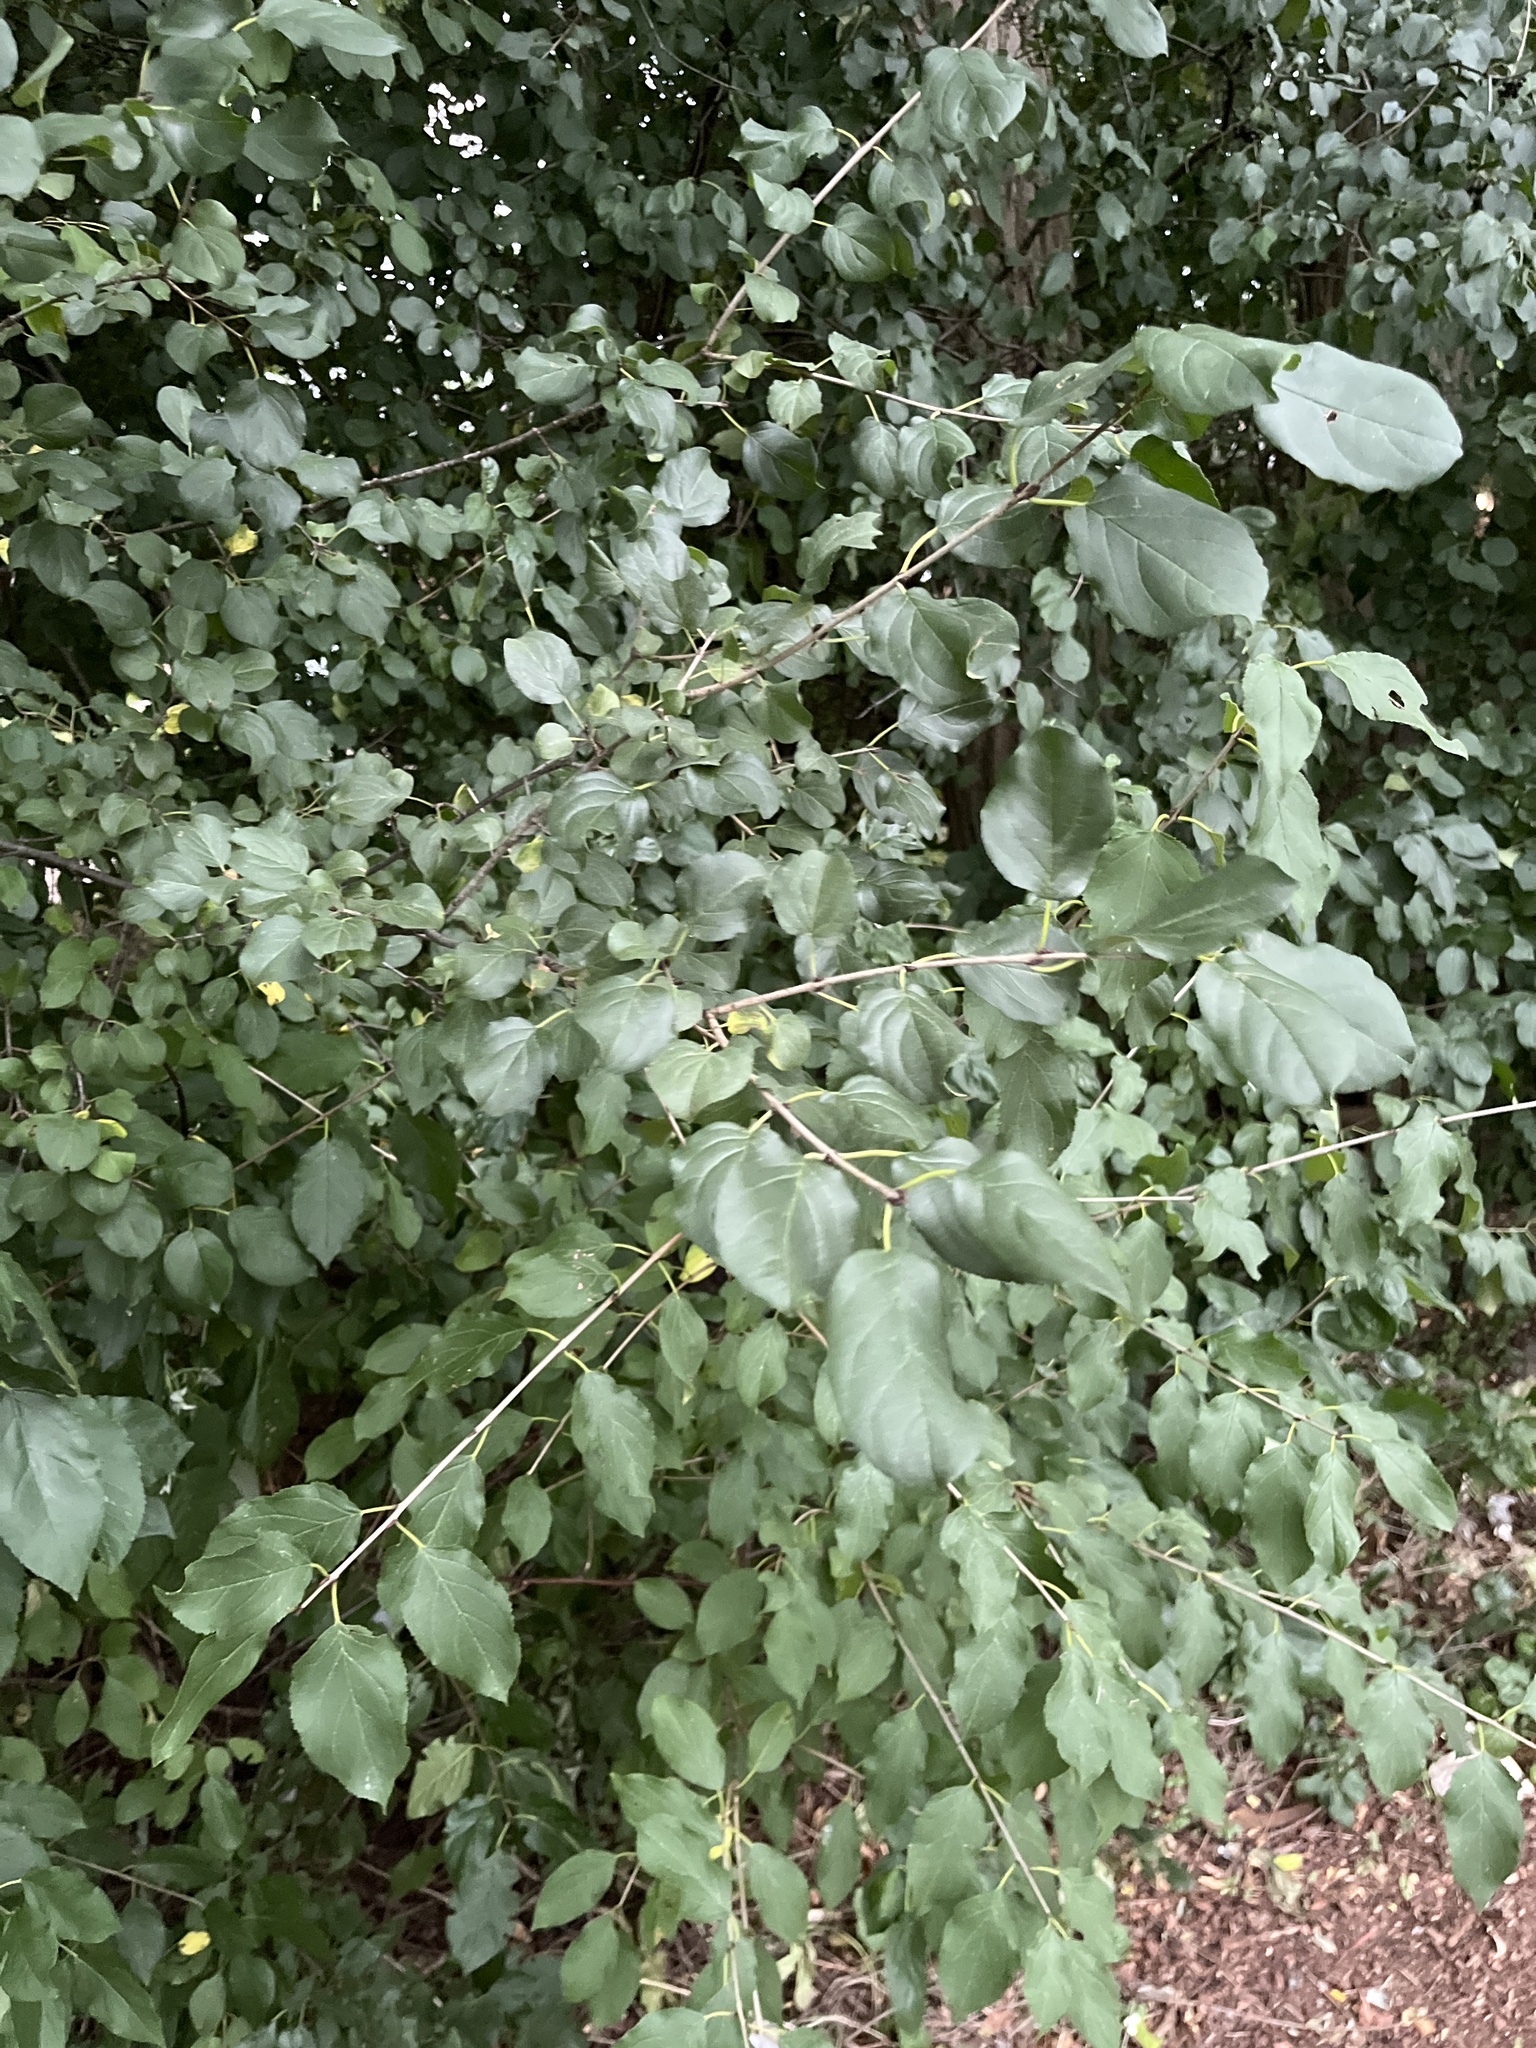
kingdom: Plantae
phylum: Tracheophyta
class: Magnoliopsida
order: Rosales
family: Rhamnaceae
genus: Rhamnus
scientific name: Rhamnus cathartica
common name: Common buckthorn
